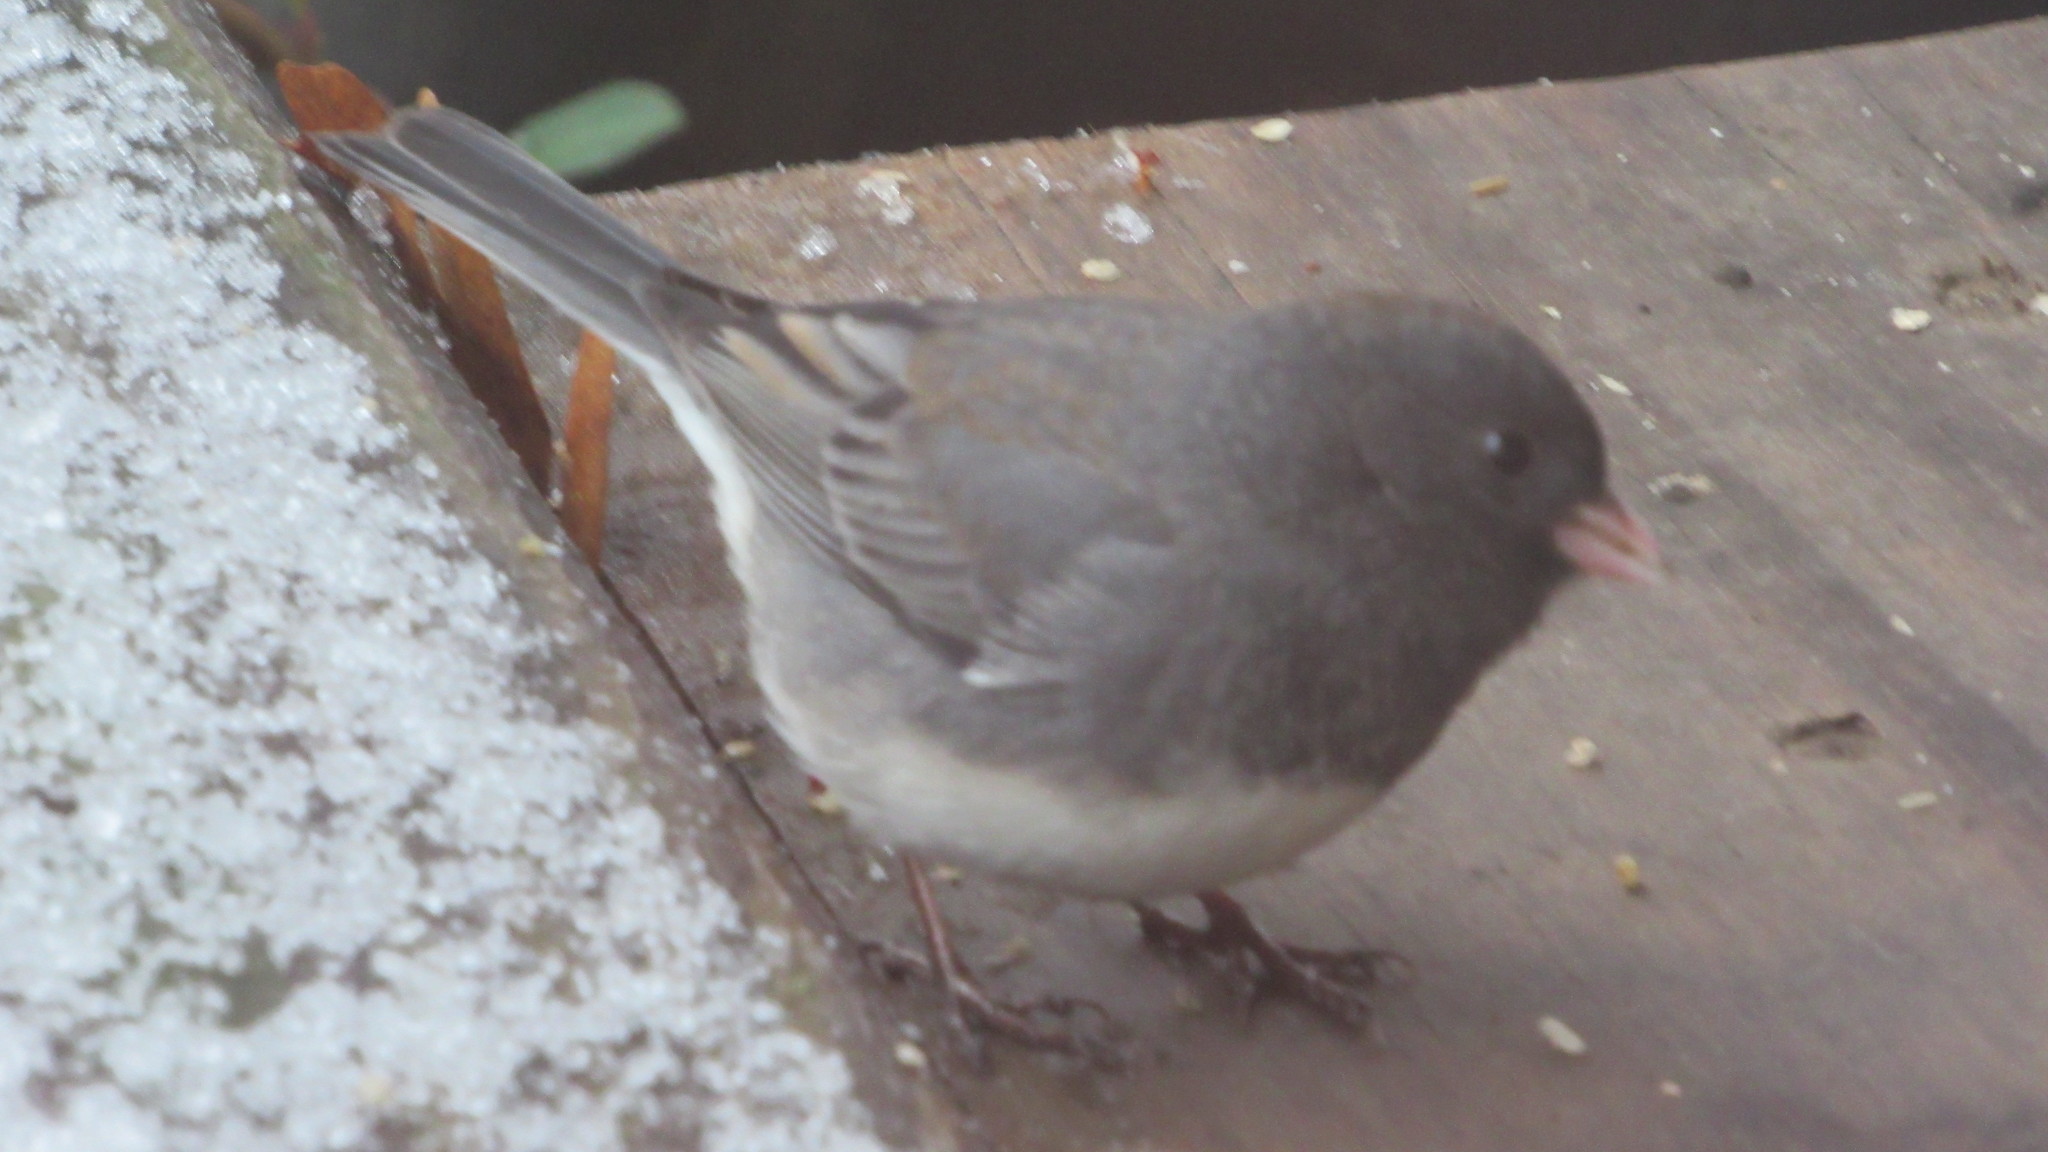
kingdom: Animalia
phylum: Chordata
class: Aves
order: Passeriformes
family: Passerellidae
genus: Junco
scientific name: Junco hyemalis
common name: Dark-eyed junco
